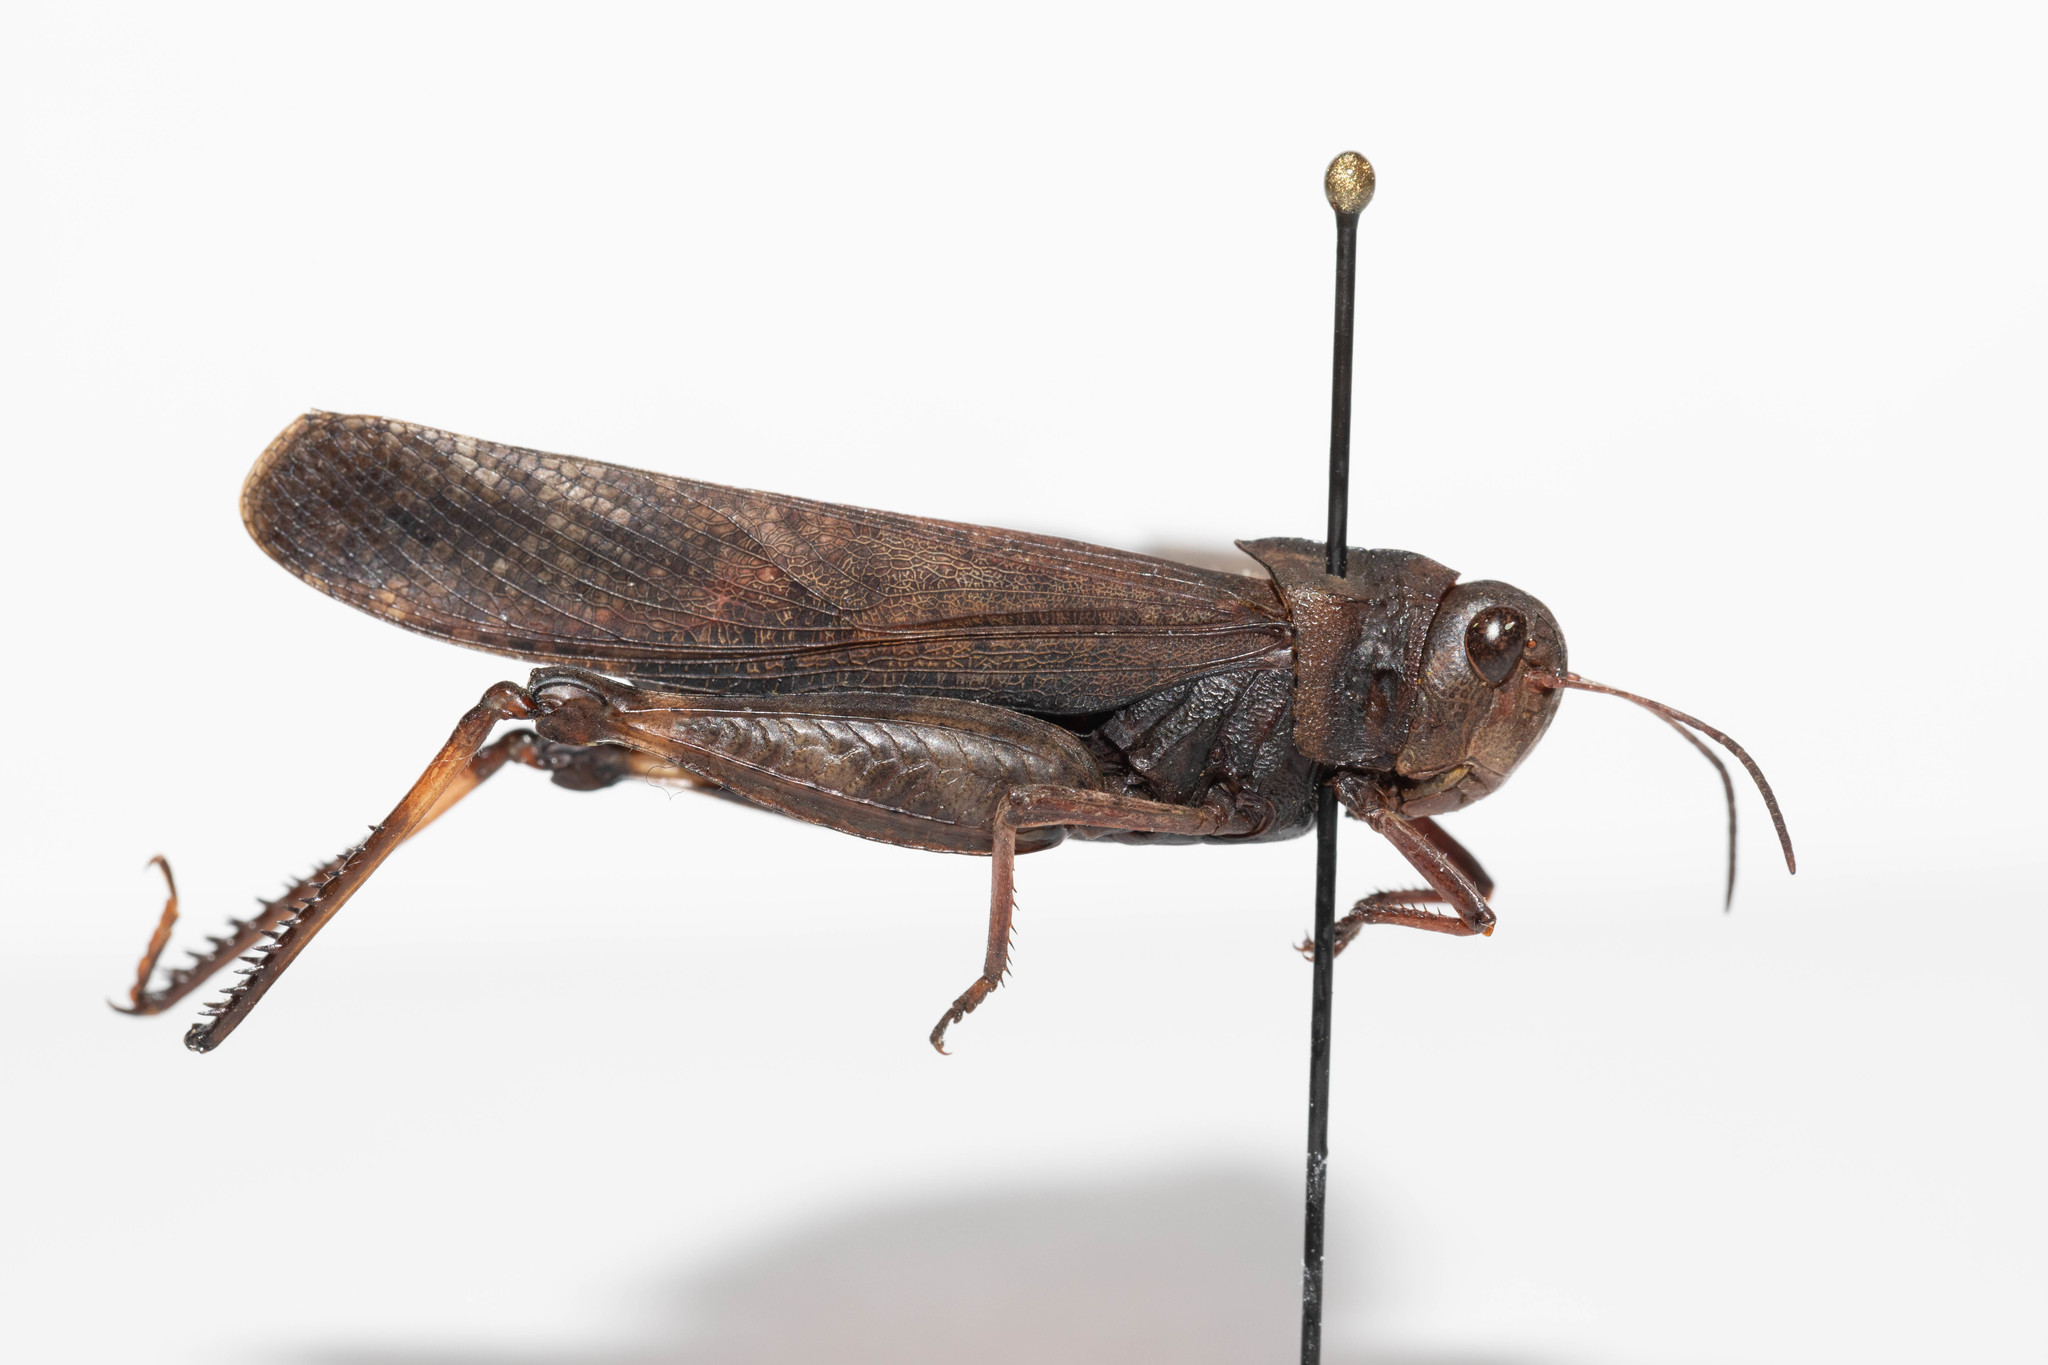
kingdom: Animalia
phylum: Arthropoda
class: Insecta
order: Orthoptera
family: Acrididae
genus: Arphia
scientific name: Arphia pseudo-nietana
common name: Red-winged grasshopper
